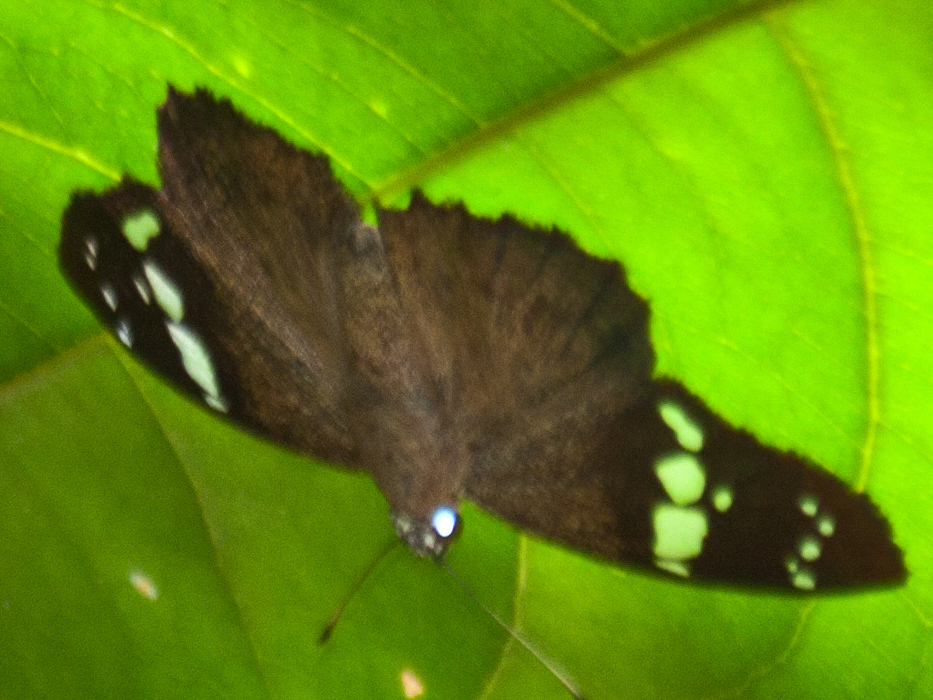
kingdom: Animalia
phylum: Arthropoda
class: Insecta
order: Lepidoptera
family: Hesperiidae
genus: Chamunda
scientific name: Chamunda chamunda
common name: Crescent spotted flat
